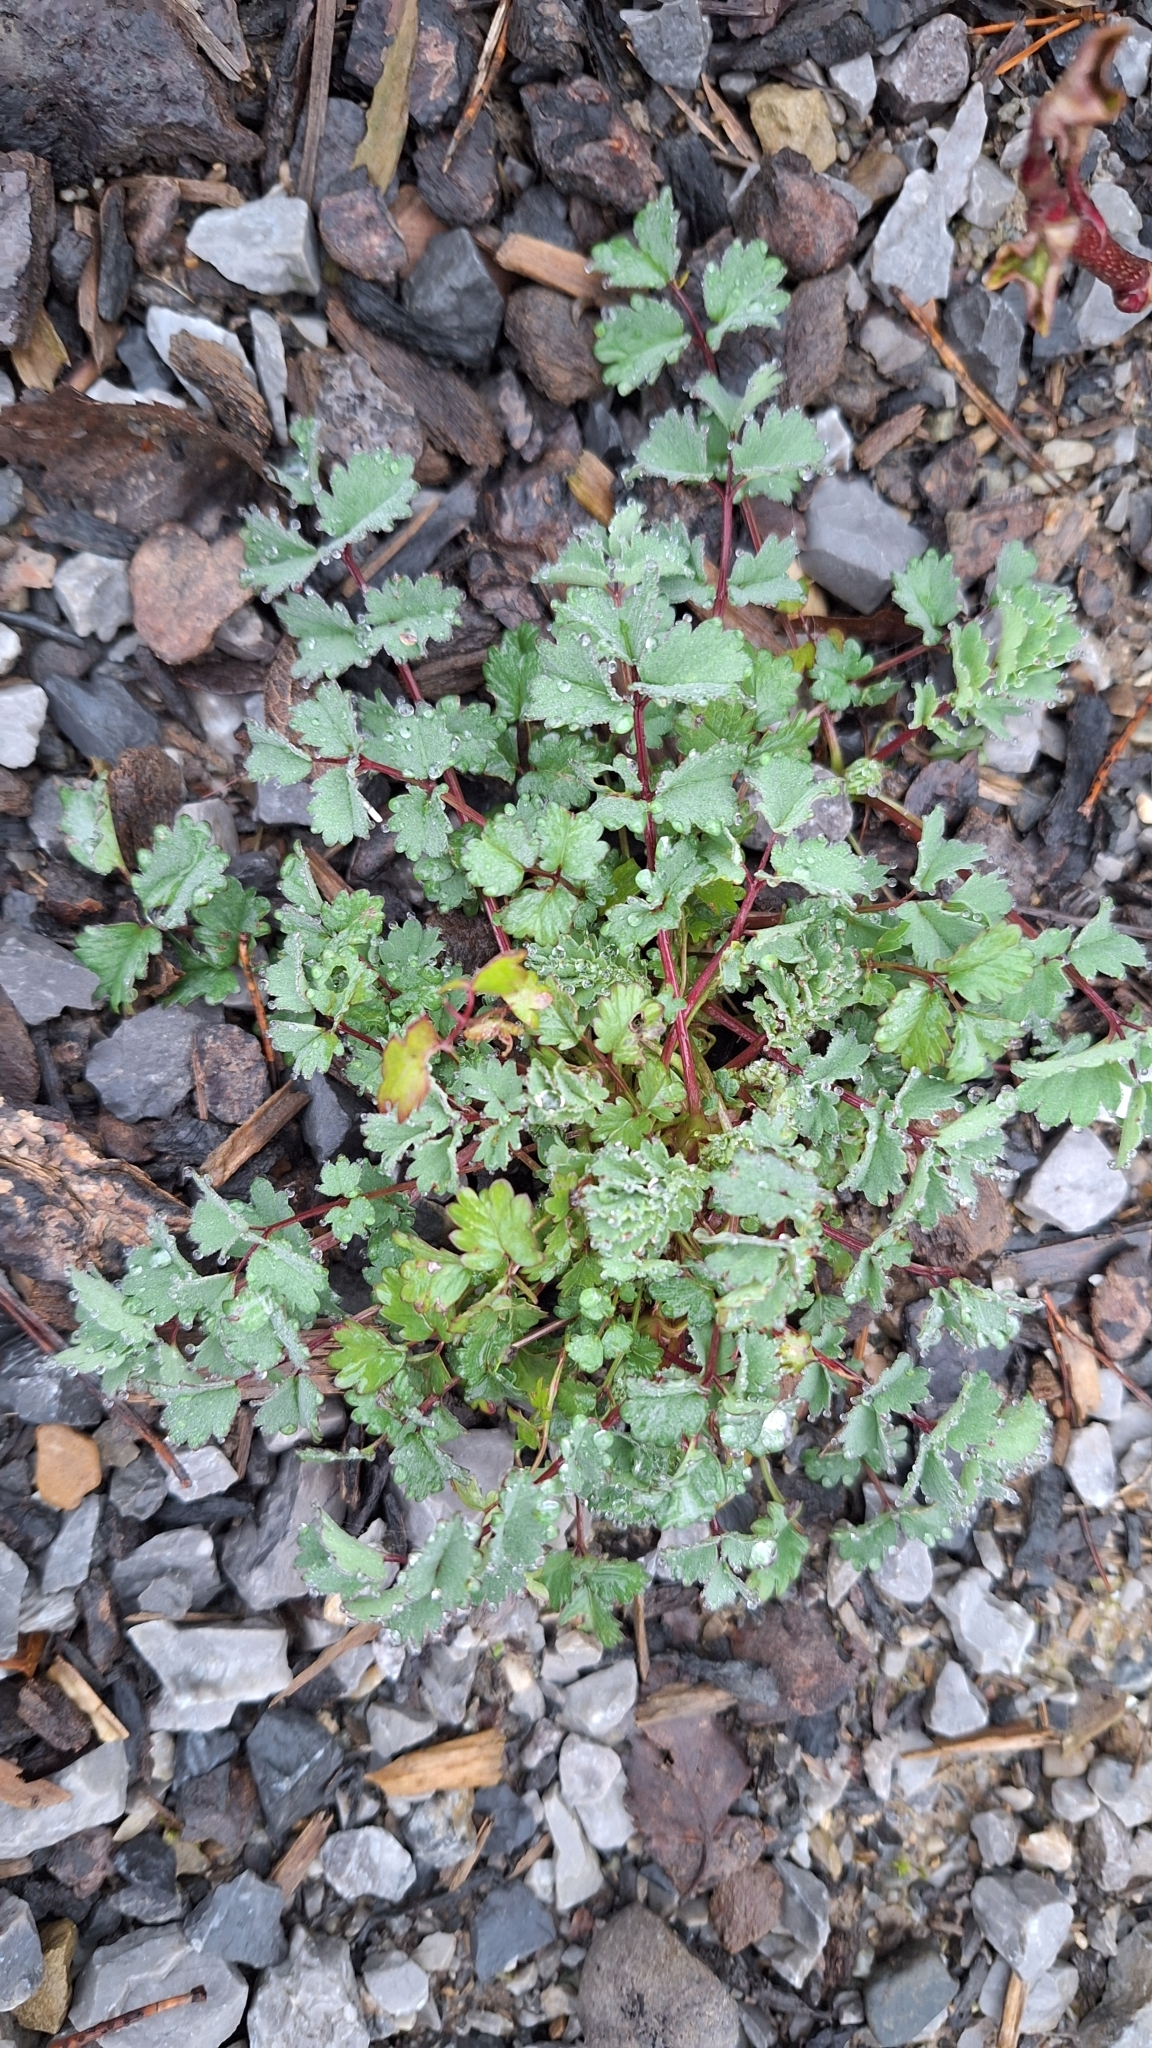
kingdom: Plantae
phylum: Tracheophyta
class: Magnoliopsida
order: Rosales
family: Rosaceae
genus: Poterium
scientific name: Poterium sanguisorba
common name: Salad burnet
